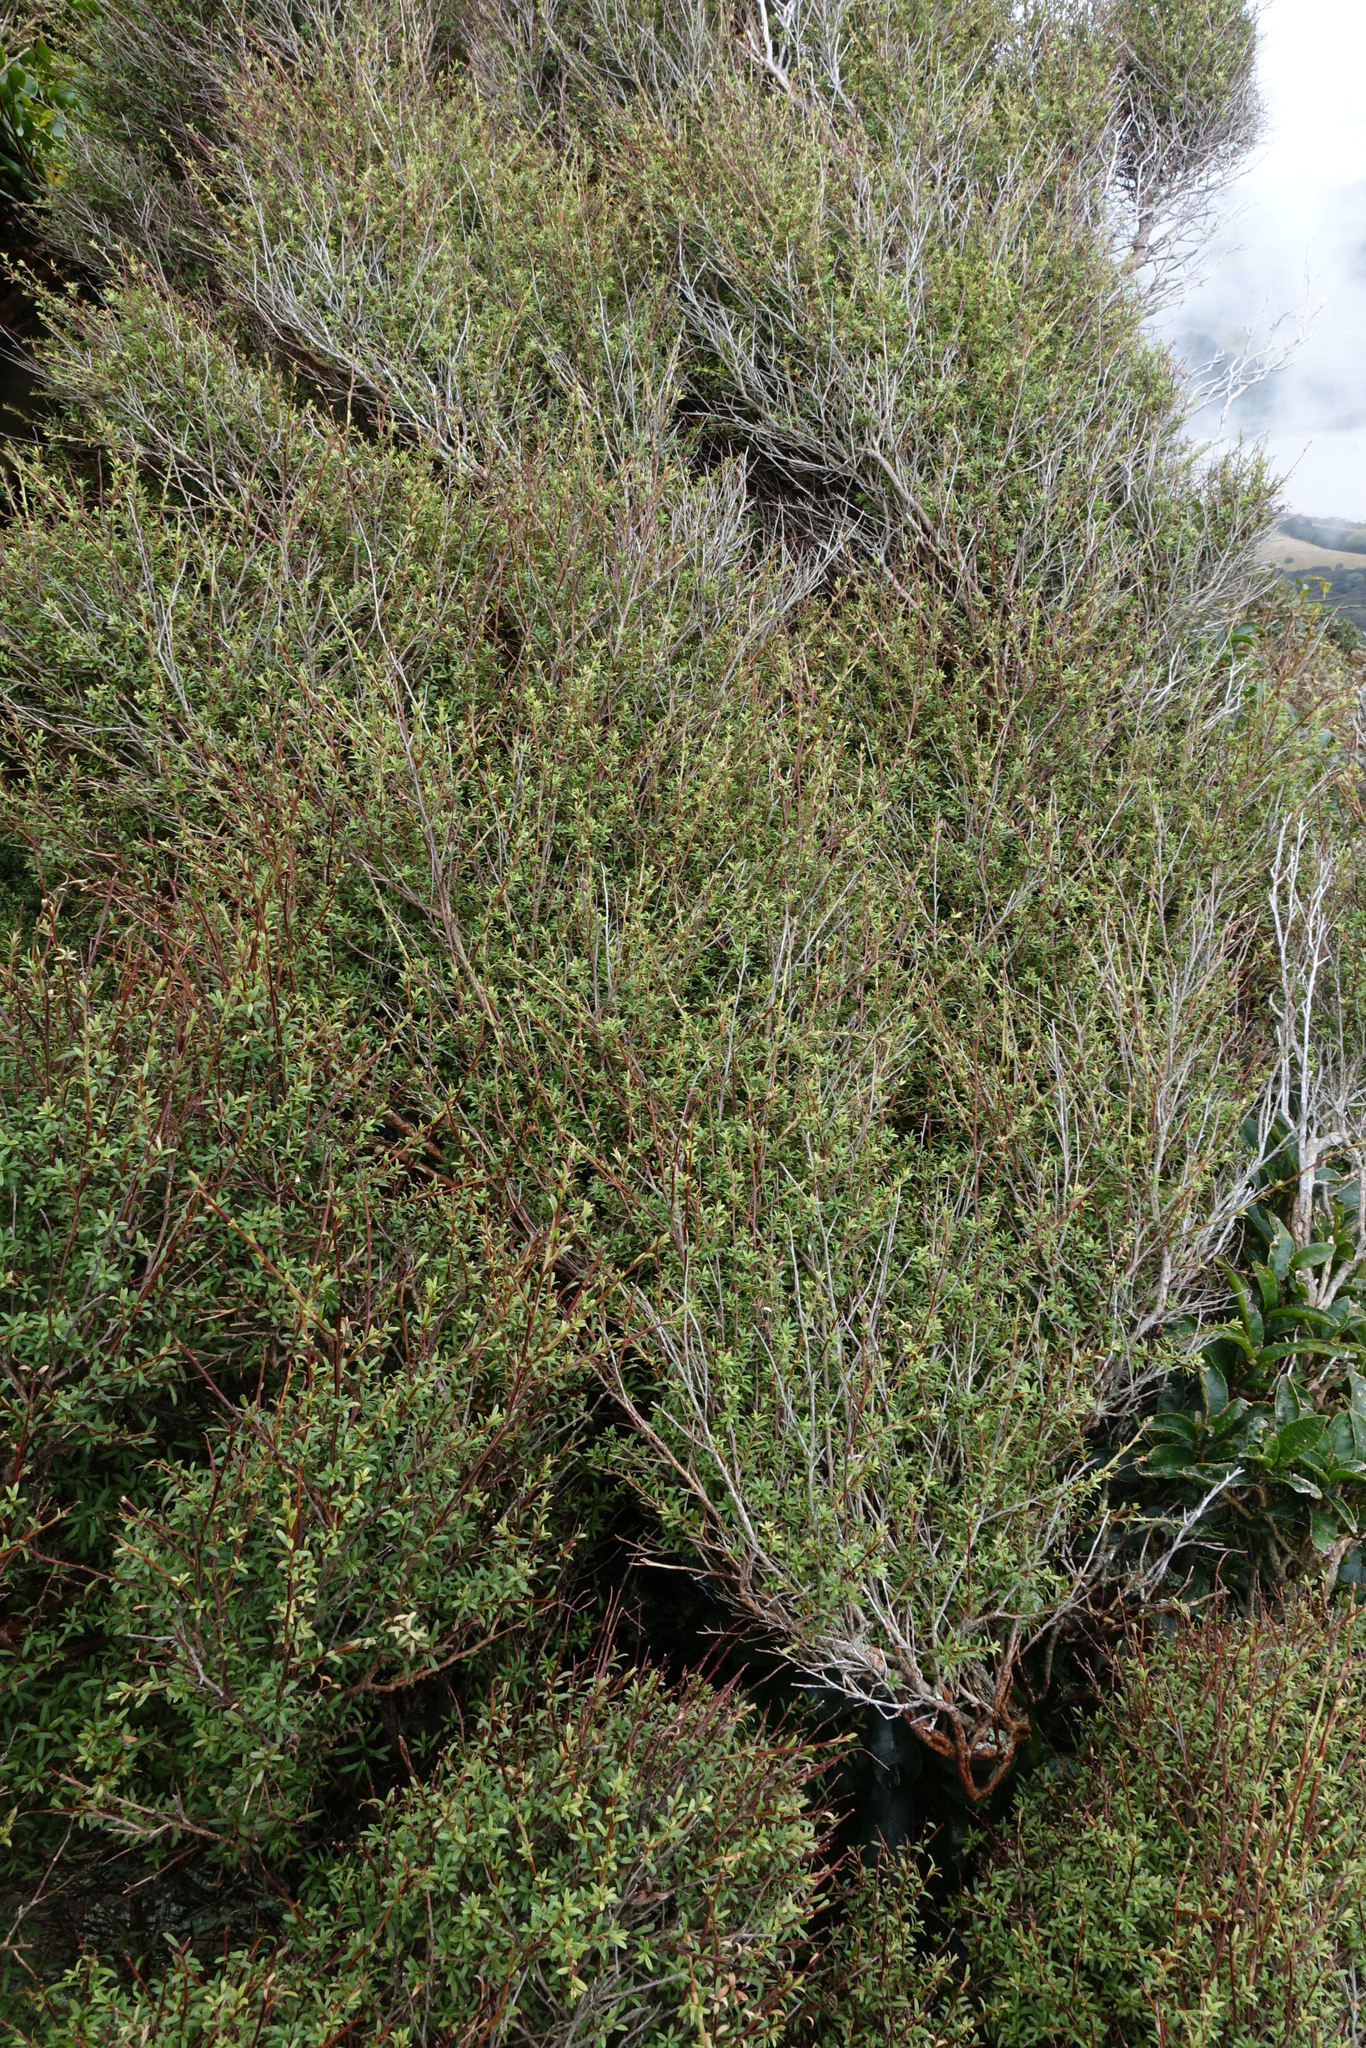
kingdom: Plantae
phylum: Tracheophyta
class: Magnoliopsida
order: Myrtales
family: Myrtaceae
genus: Kunzea
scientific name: Kunzea robusta
